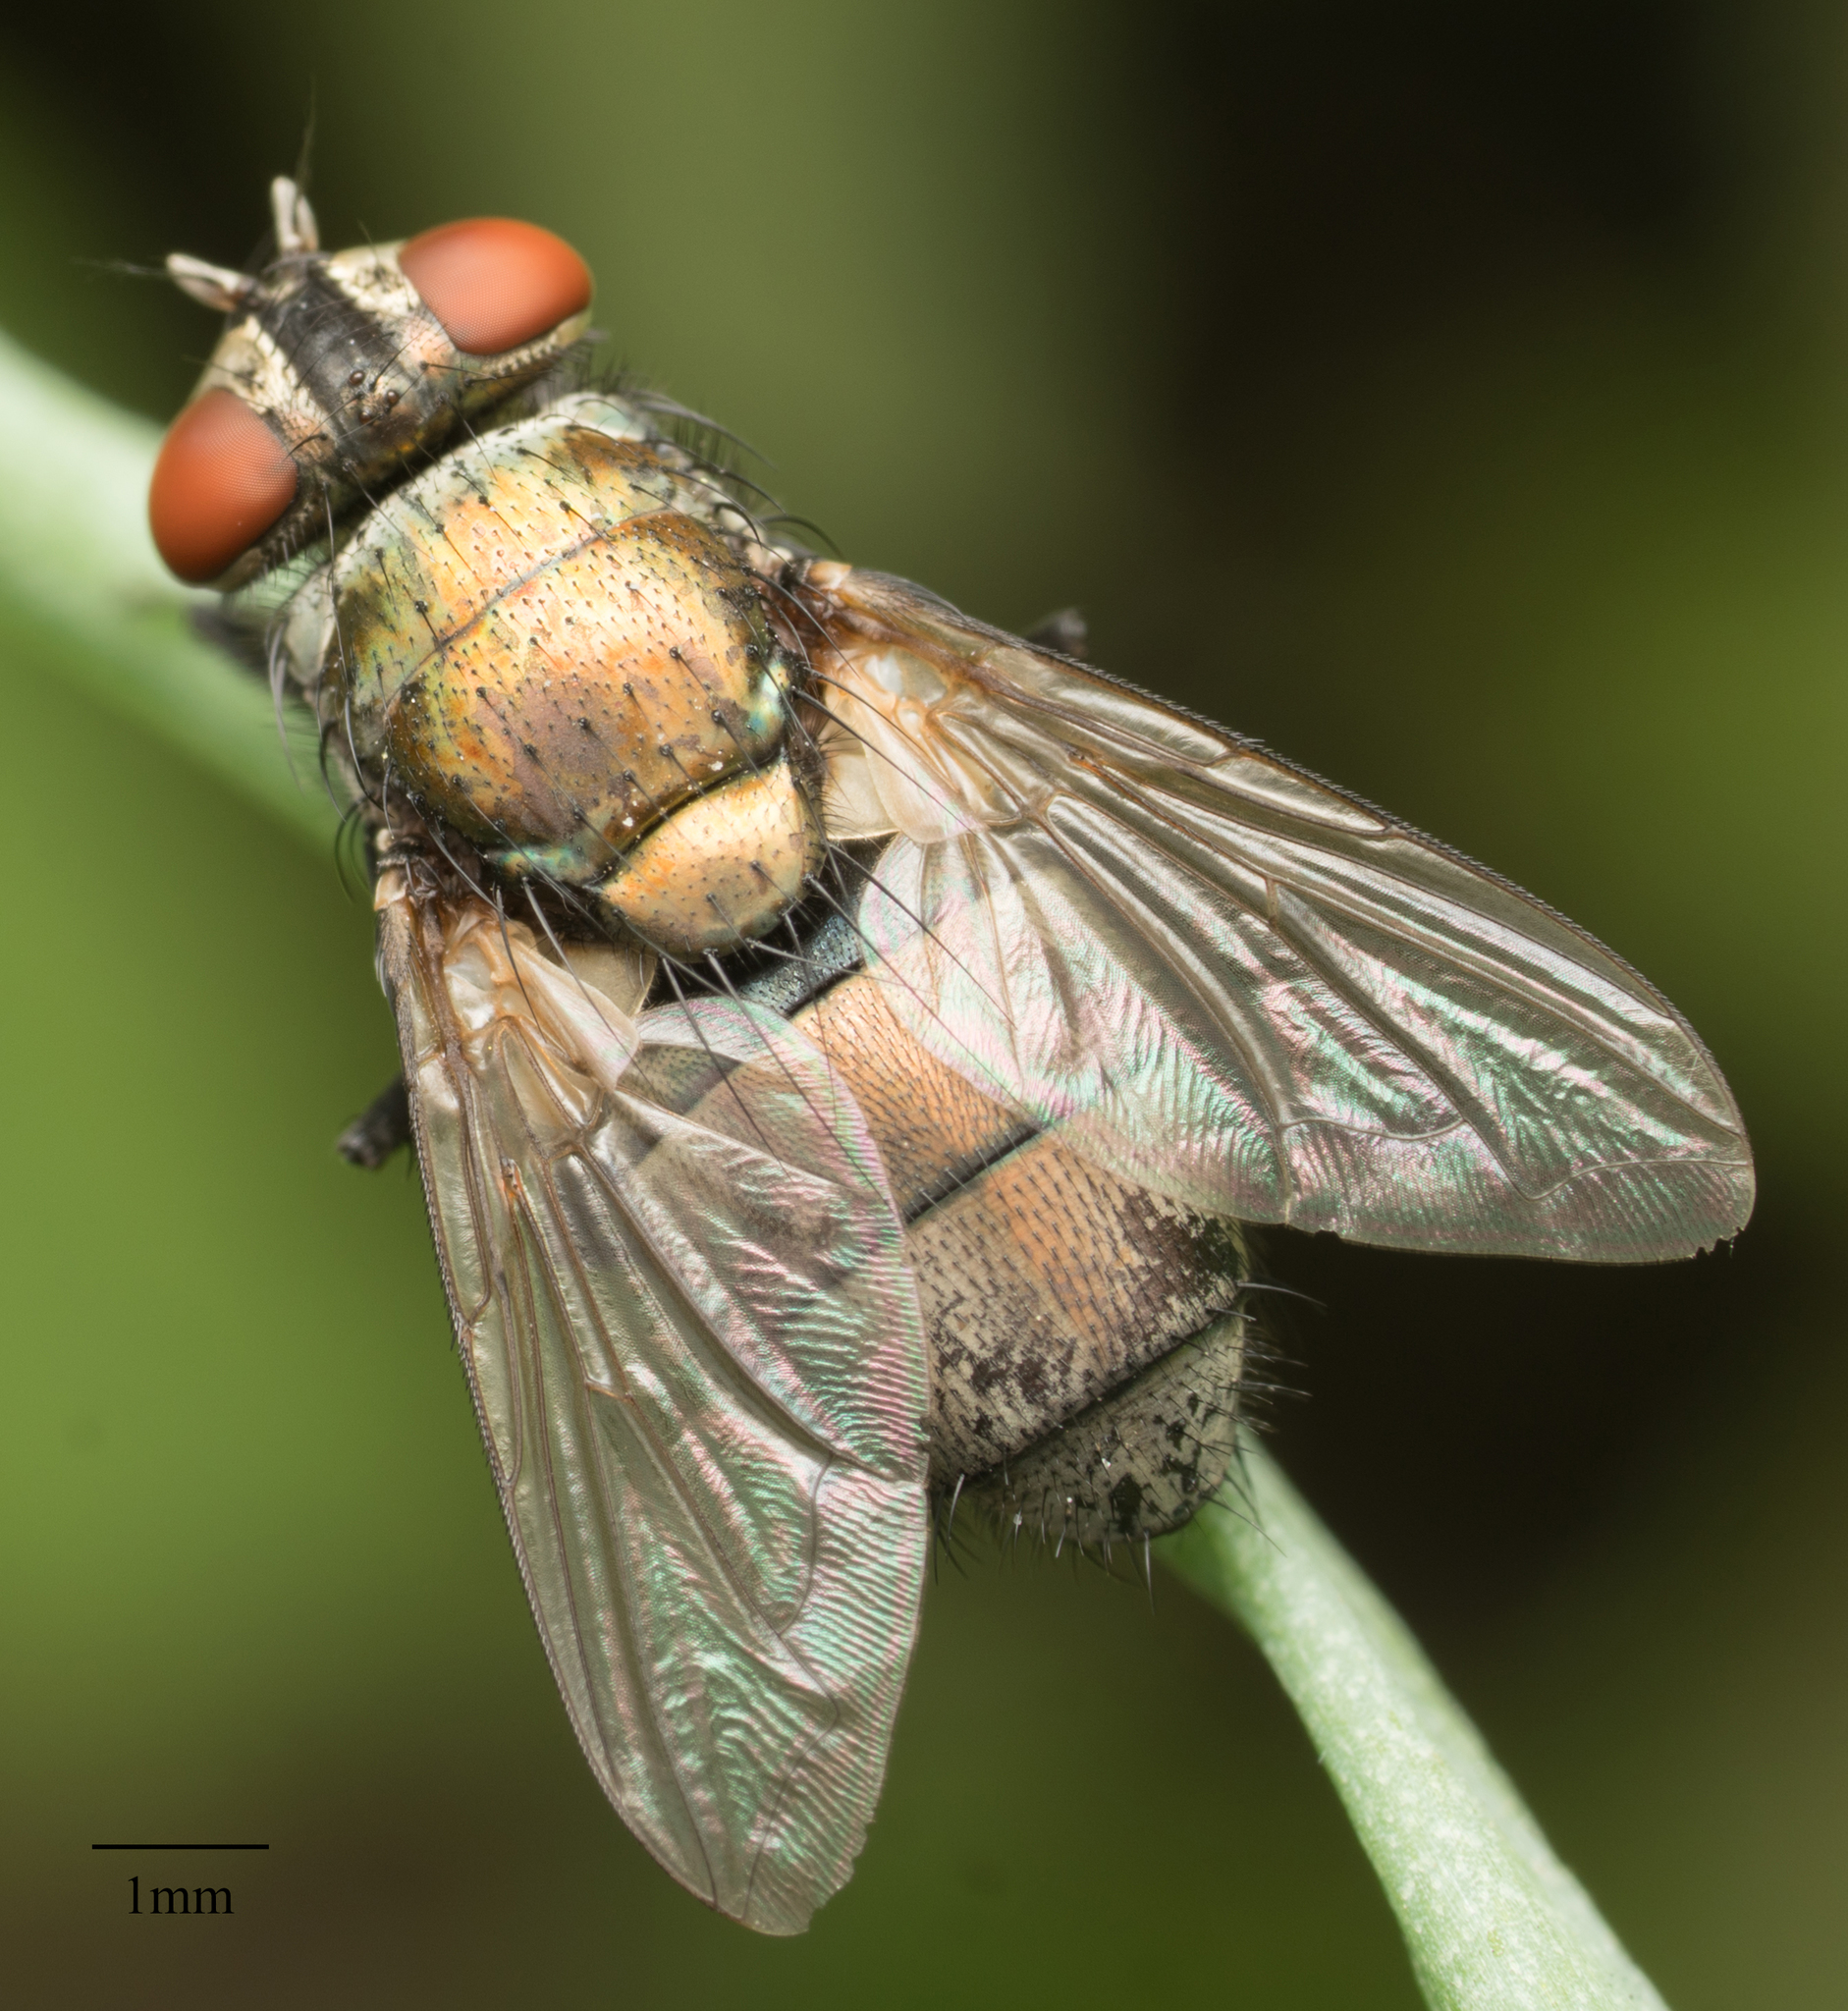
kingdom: Animalia
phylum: Arthropoda
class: Insecta
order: Diptera
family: Calliphoridae
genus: Lucilia
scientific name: Lucilia cuprina
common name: Sheep blow fly
